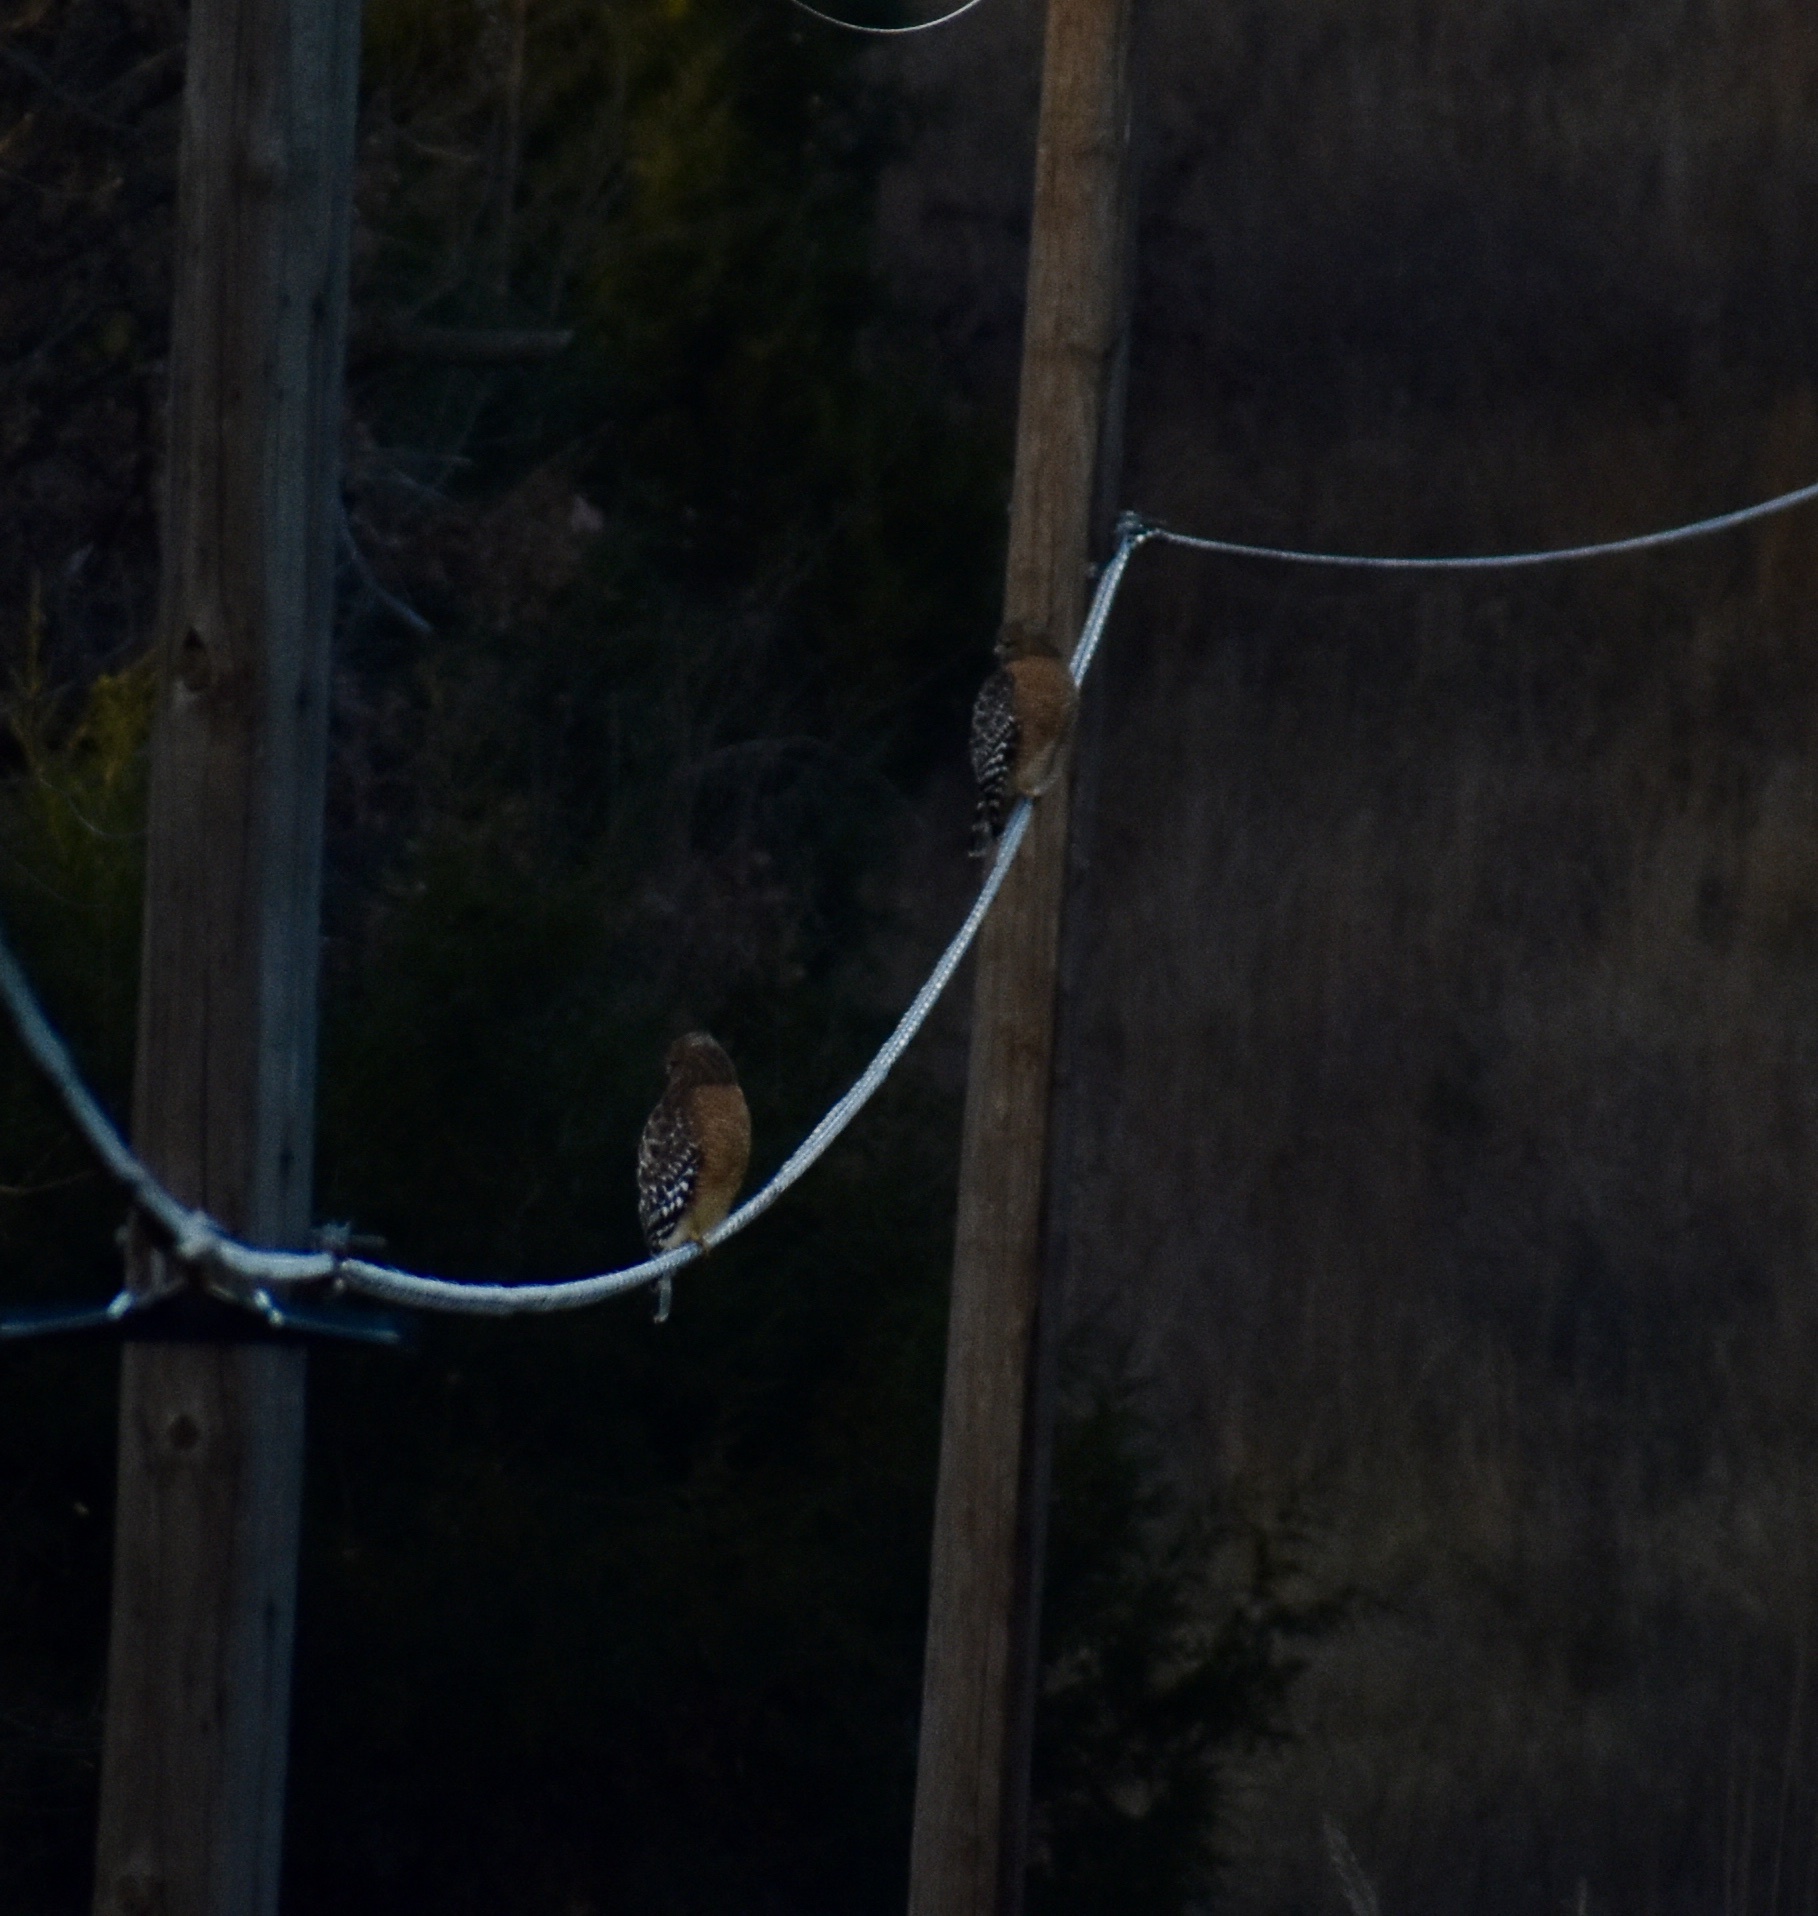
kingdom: Animalia
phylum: Chordata
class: Aves
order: Accipitriformes
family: Accipitridae
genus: Buteo
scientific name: Buteo lineatus
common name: Red-shouldered hawk
